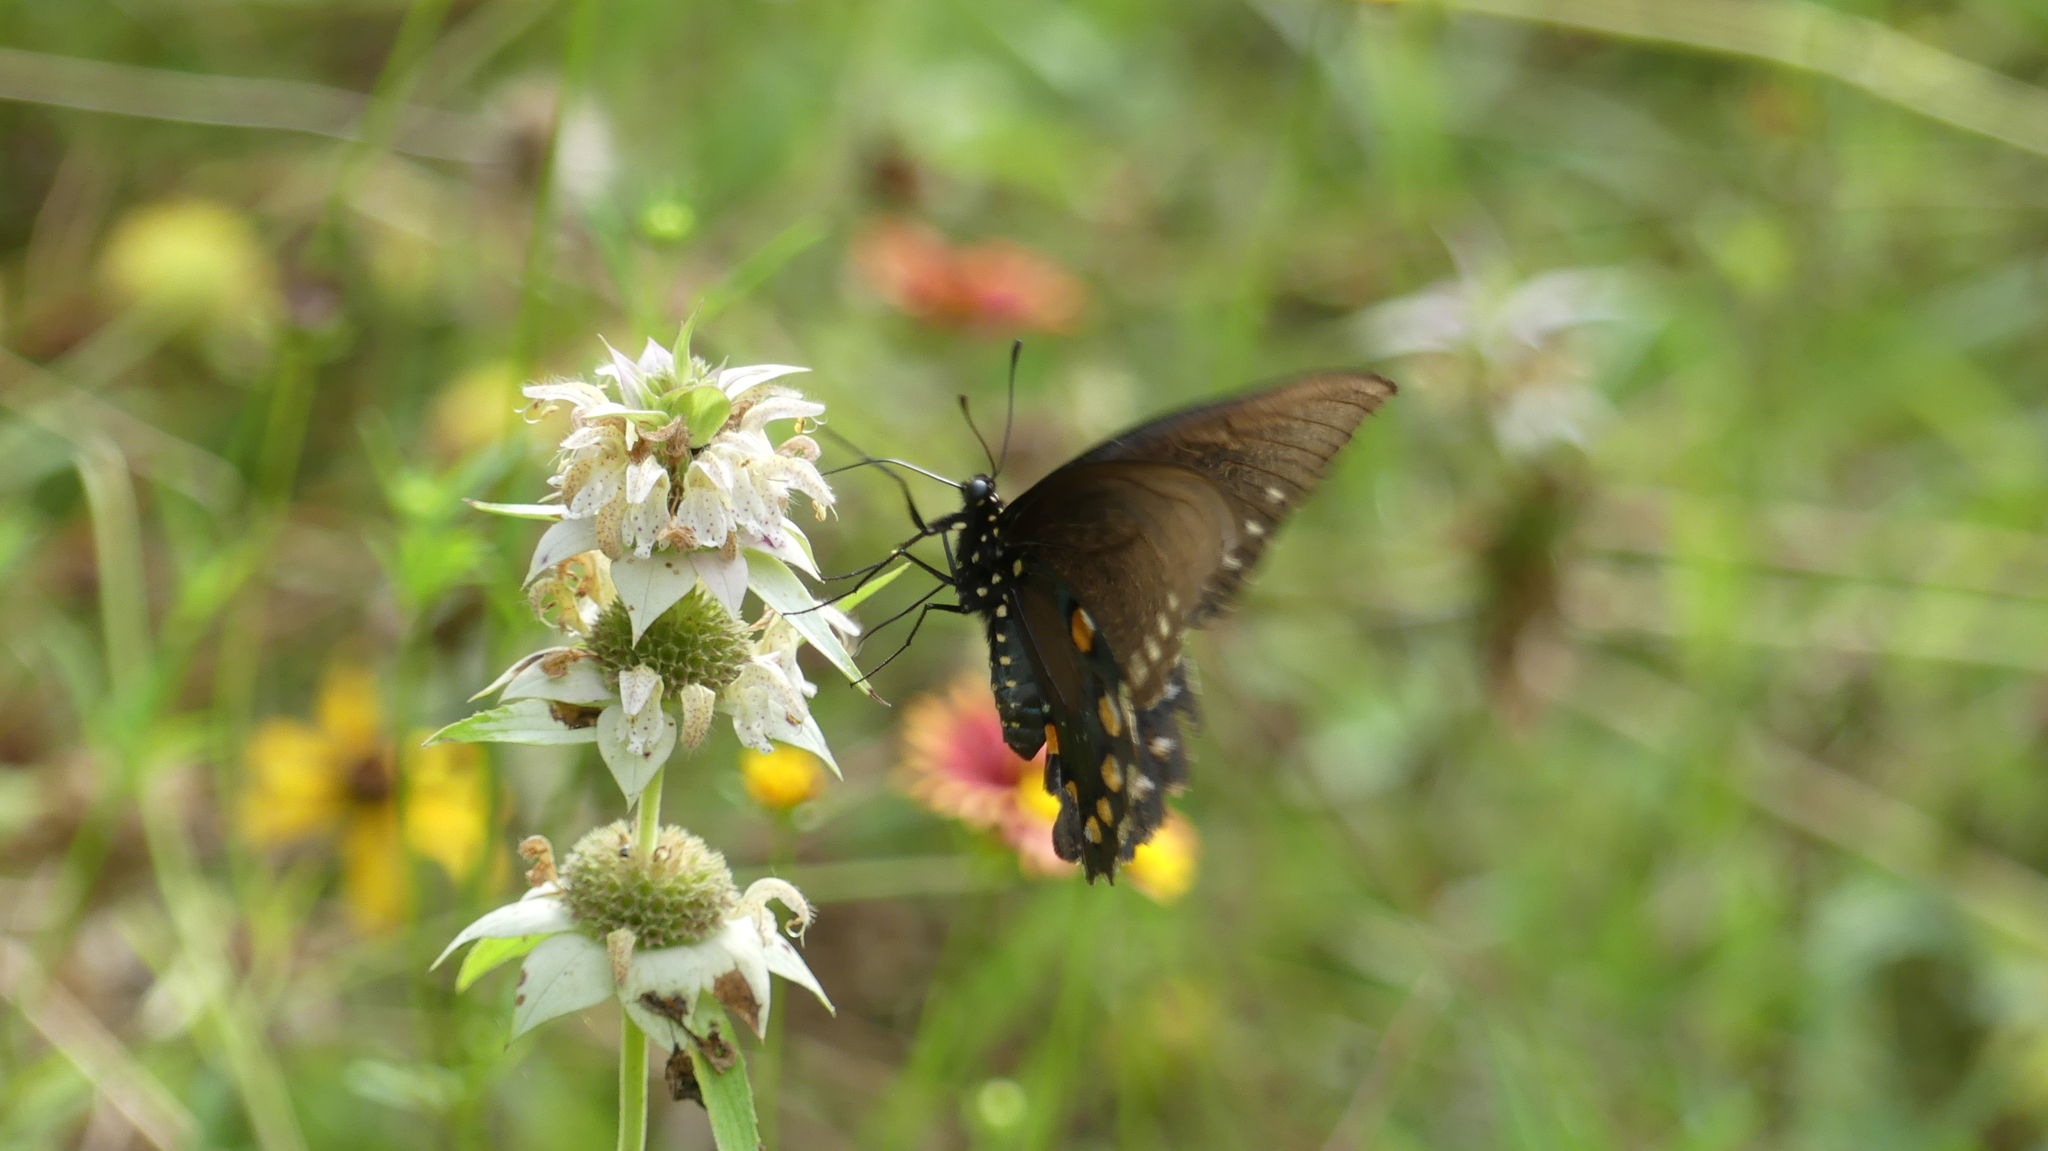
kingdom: Animalia
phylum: Arthropoda
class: Insecta
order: Lepidoptera
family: Papilionidae
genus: Battus
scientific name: Battus philenor
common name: Pipevine swallowtail
